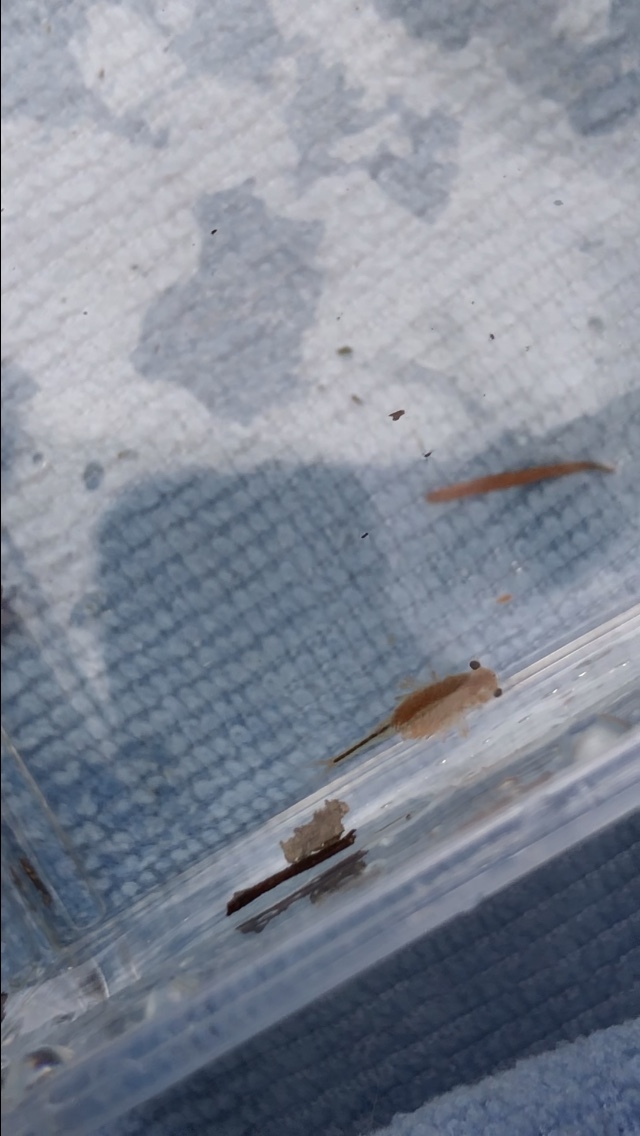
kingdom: Animalia
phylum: Arthropoda
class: Branchiopoda
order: Anostraca
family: Chirocephalidae
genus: Eubranchipus
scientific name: Eubranchipus oregonus
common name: Oregon fairy shrimp
